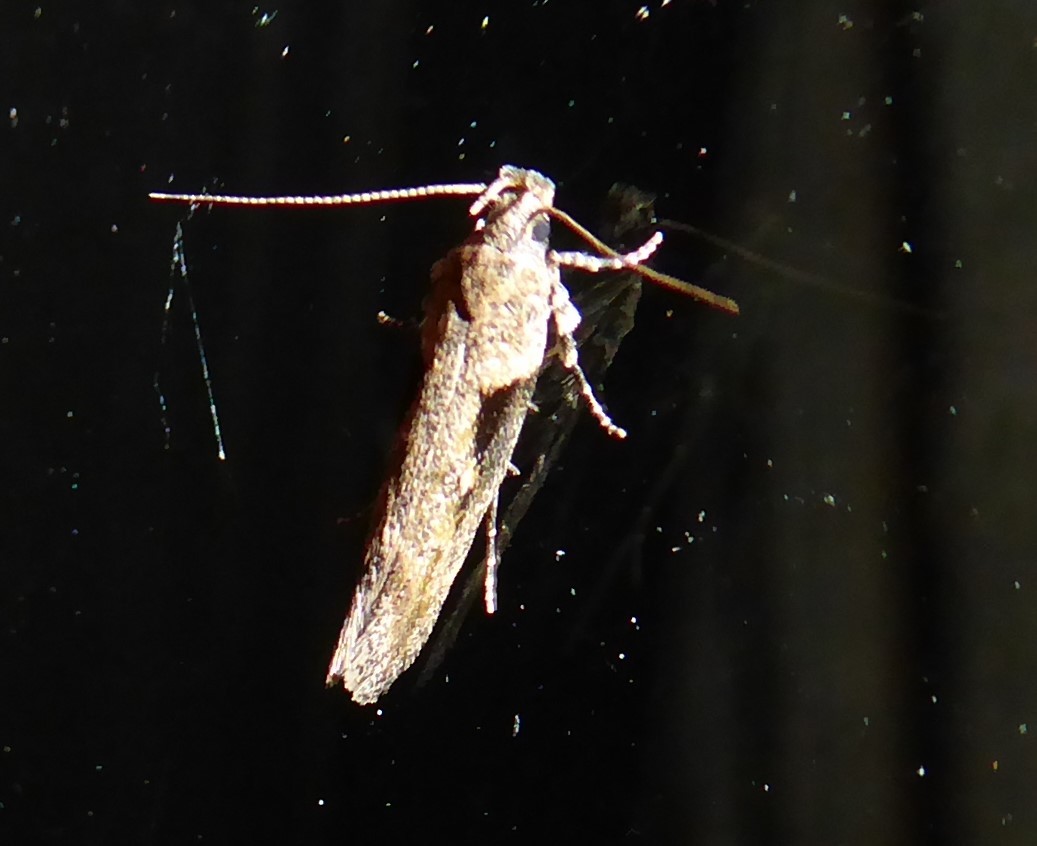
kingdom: Animalia
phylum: Arthropoda
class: Insecta
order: Lepidoptera
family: Gelechiidae
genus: Symmetrischema
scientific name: Symmetrischema tangolias
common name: Moth
